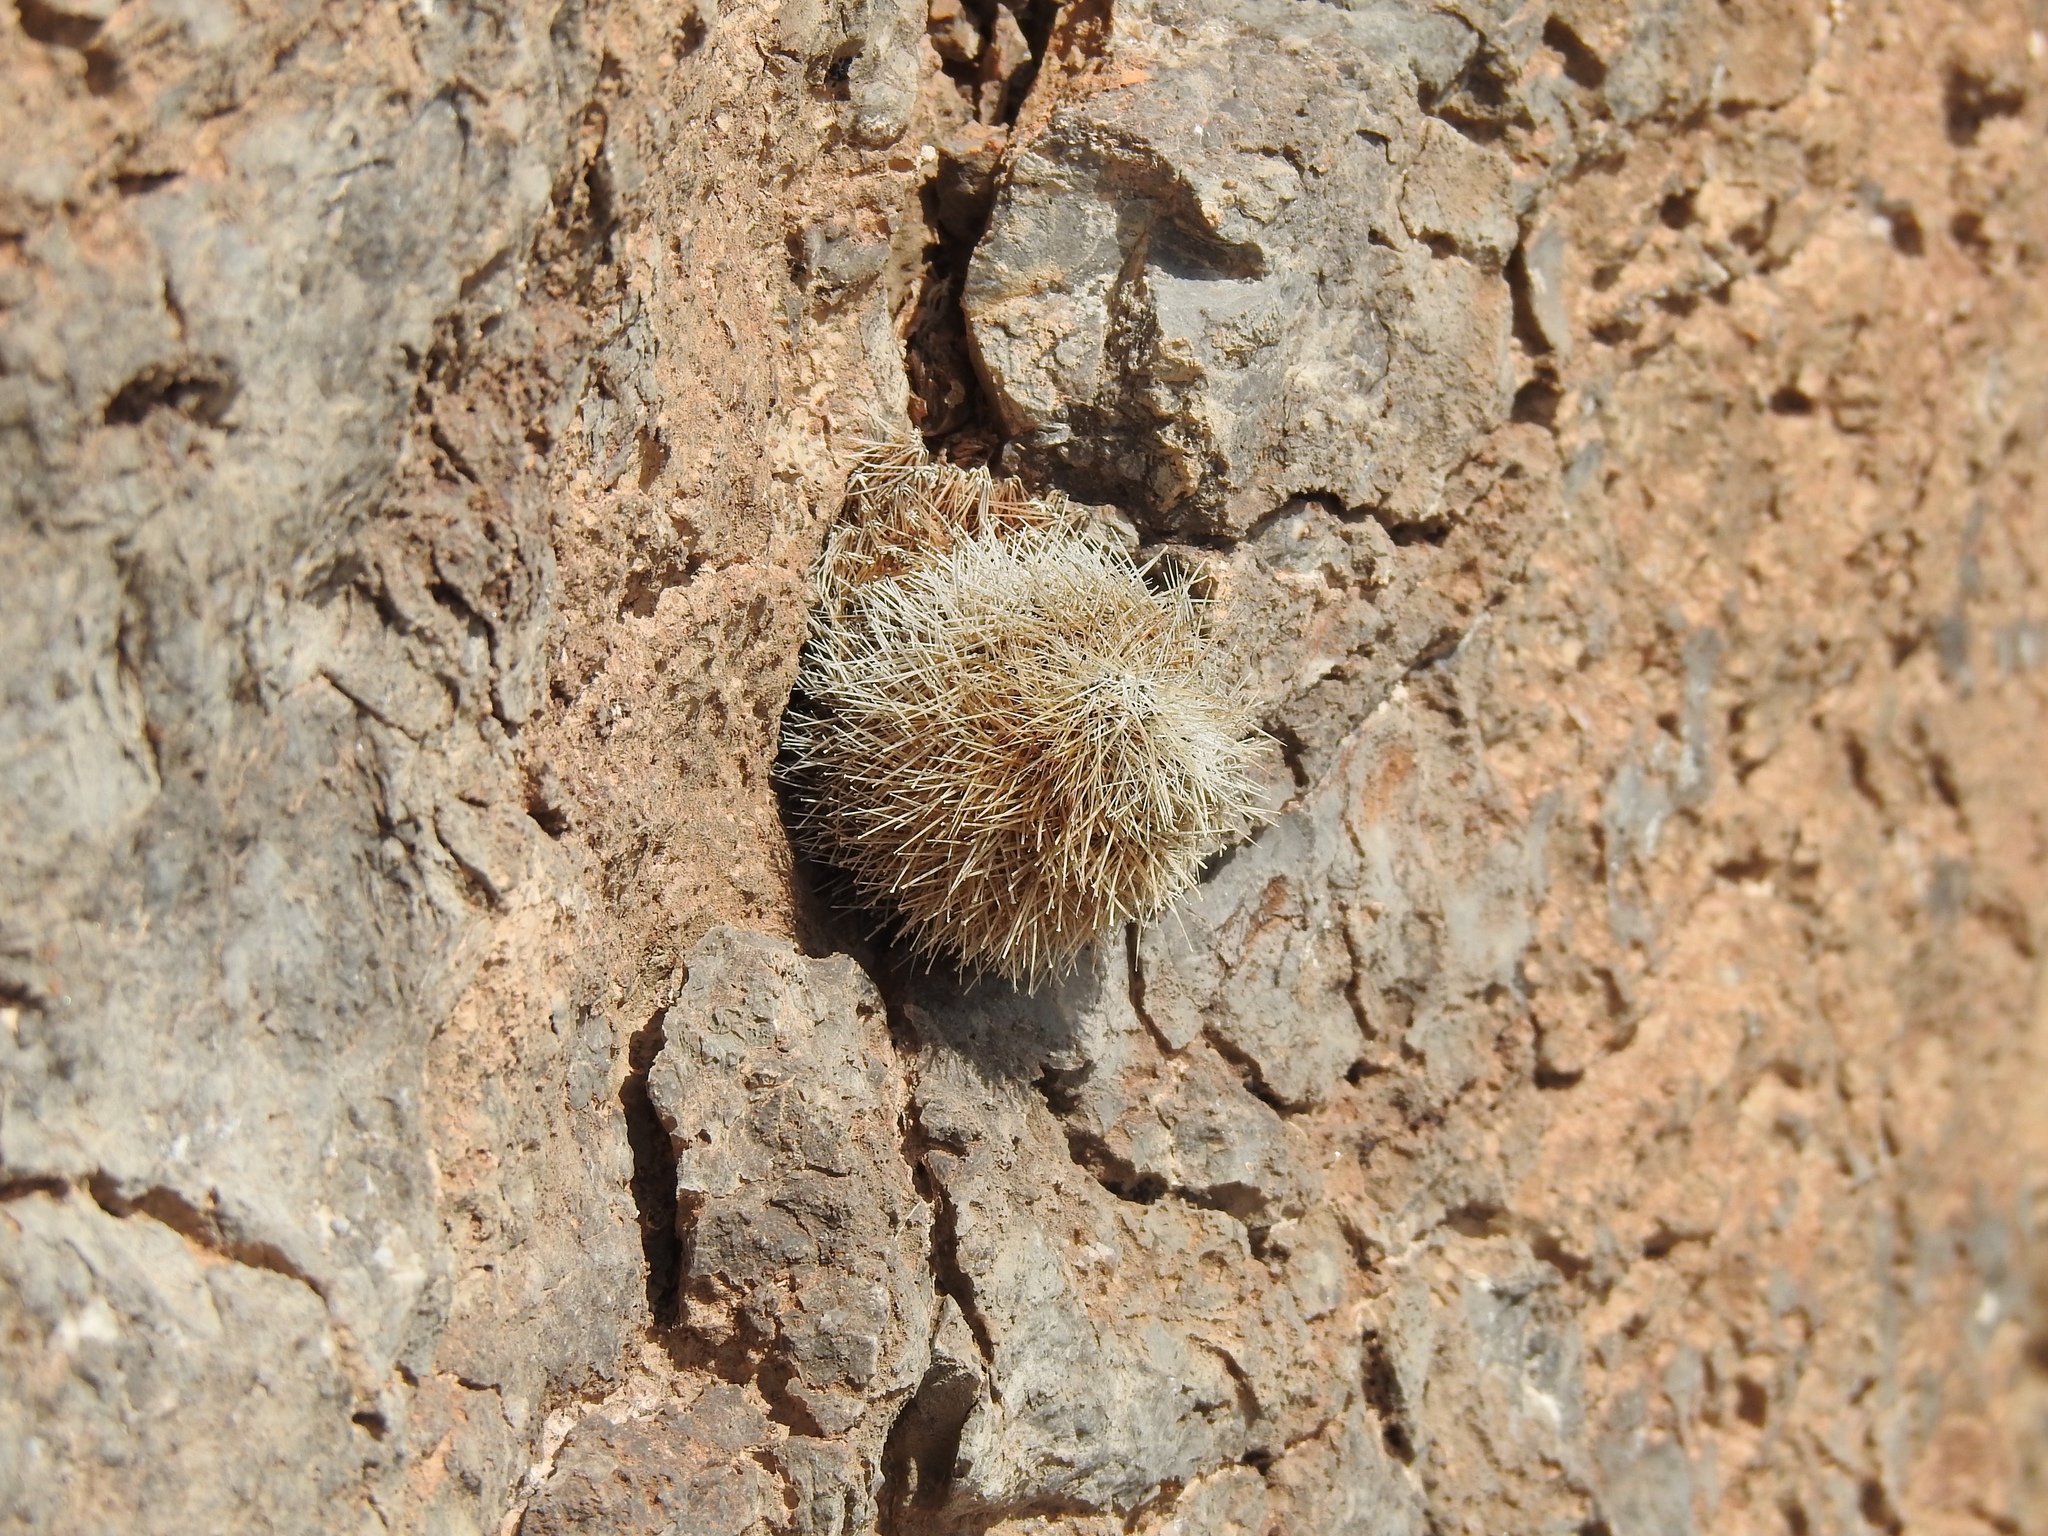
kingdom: Plantae
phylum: Tracheophyta
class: Magnoliopsida
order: Caryophyllales
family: Cactaceae
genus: Echinocereus
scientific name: Echinocereus dasyacanthus
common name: Spiny hedgehog cactus
